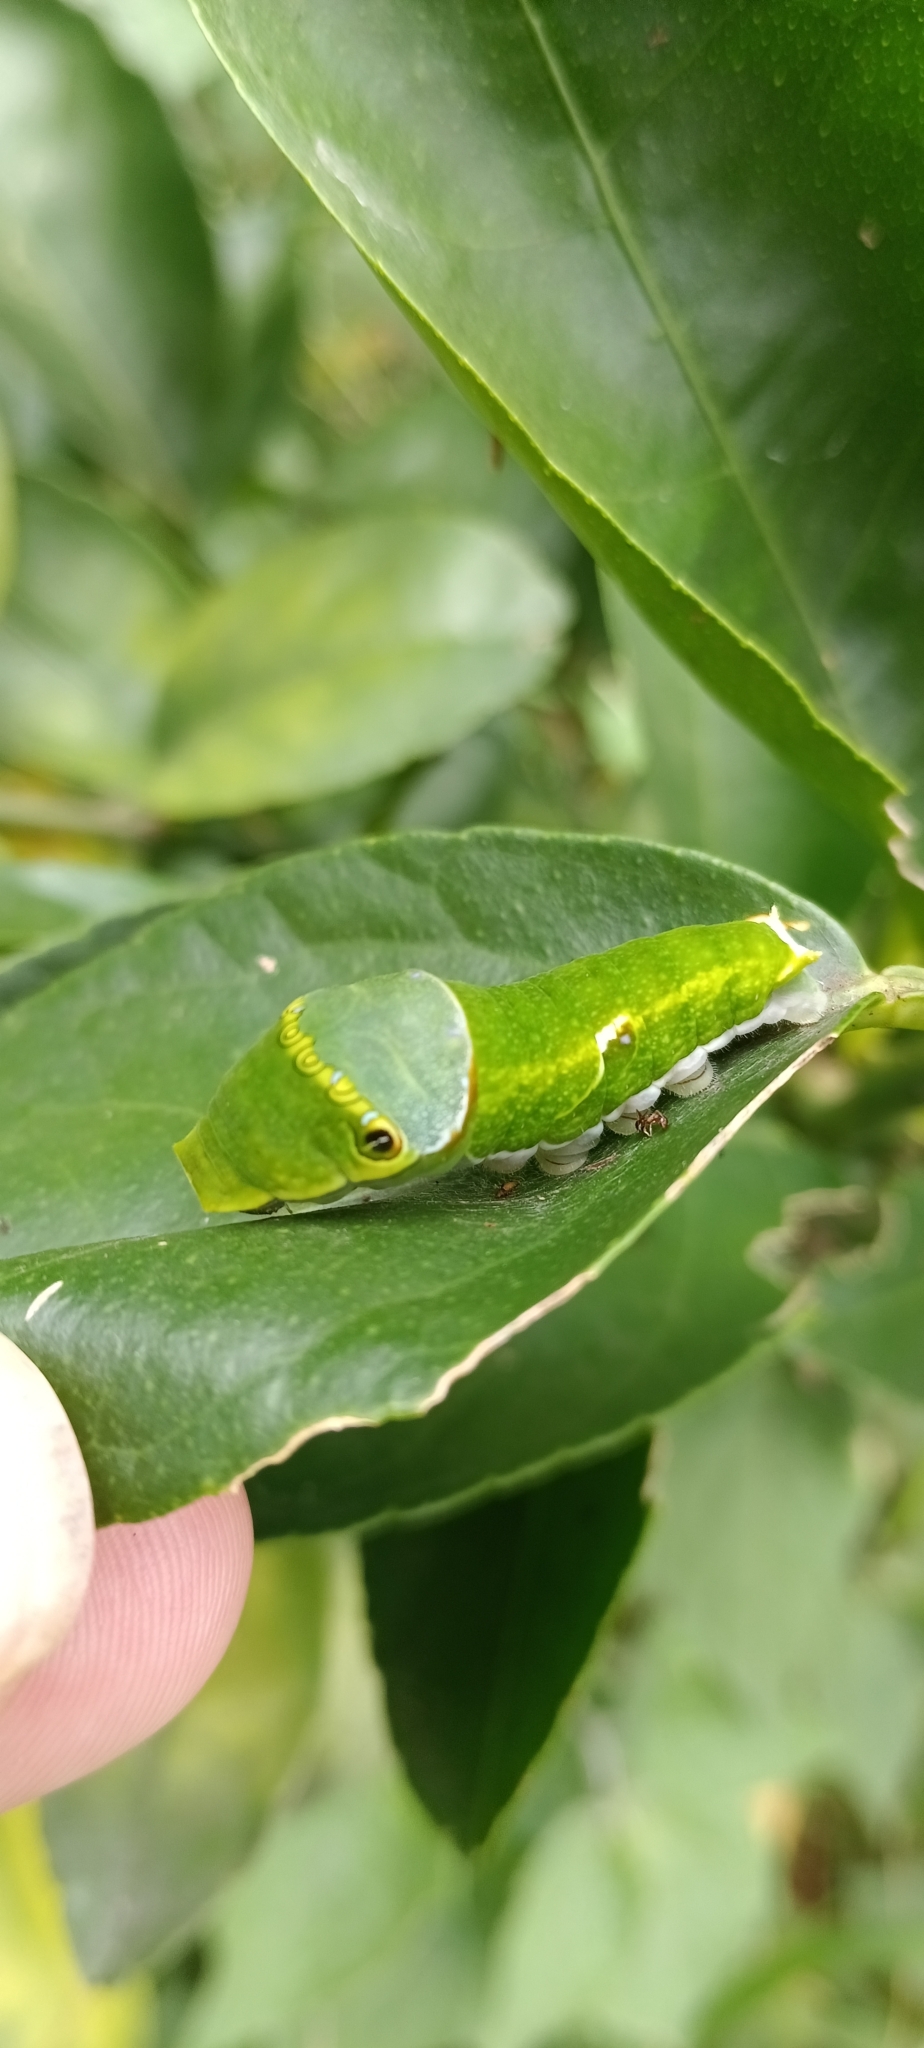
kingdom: Animalia
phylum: Arthropoda
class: Insecta
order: Lepidoptera
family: Papilionidae
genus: Papilio
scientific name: Papilio nireus
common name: Greenbanded swallowtail
